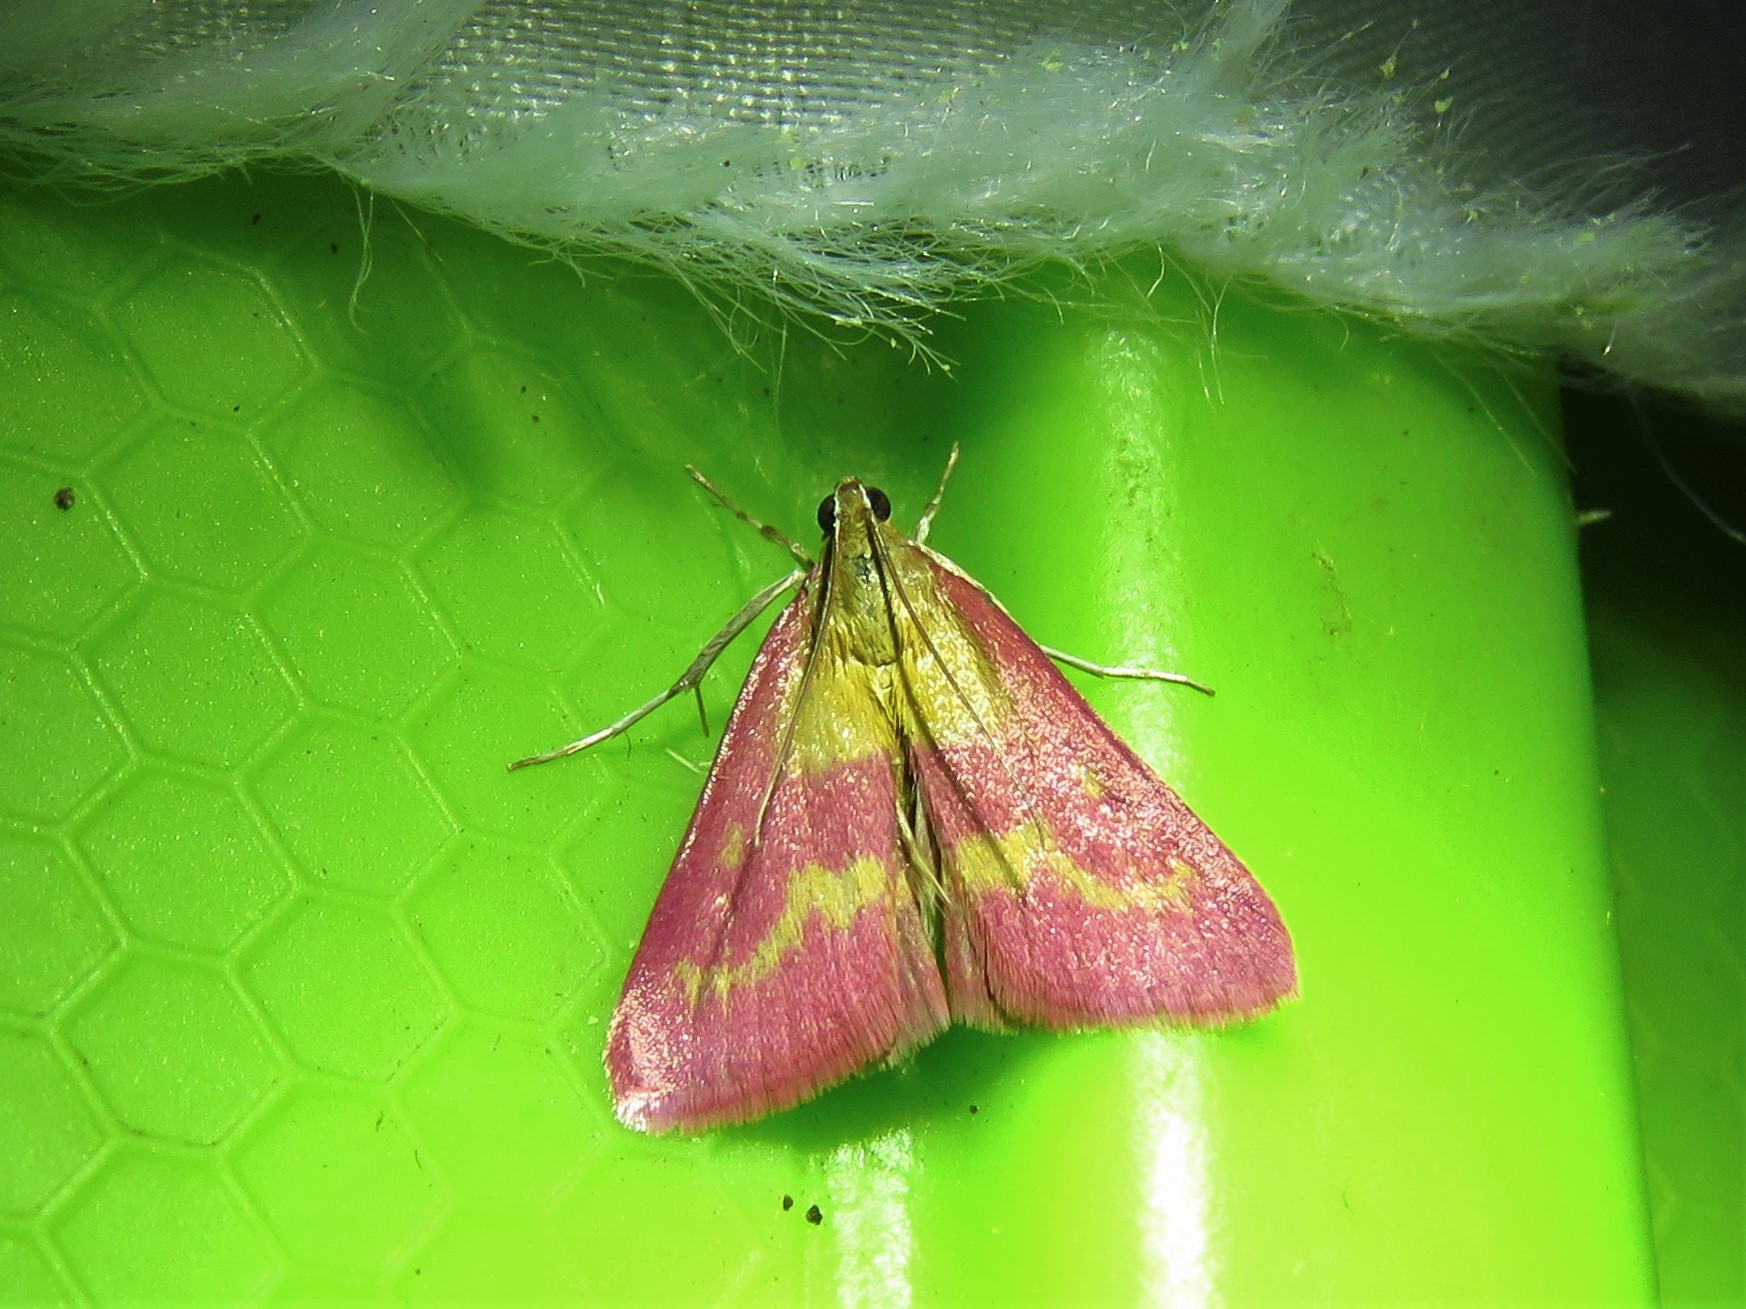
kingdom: Animalia
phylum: Arthropoda
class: Insecta
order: Lepidoptera
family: Crambidae
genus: Pyrausta
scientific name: Pyrausta laticlavia
